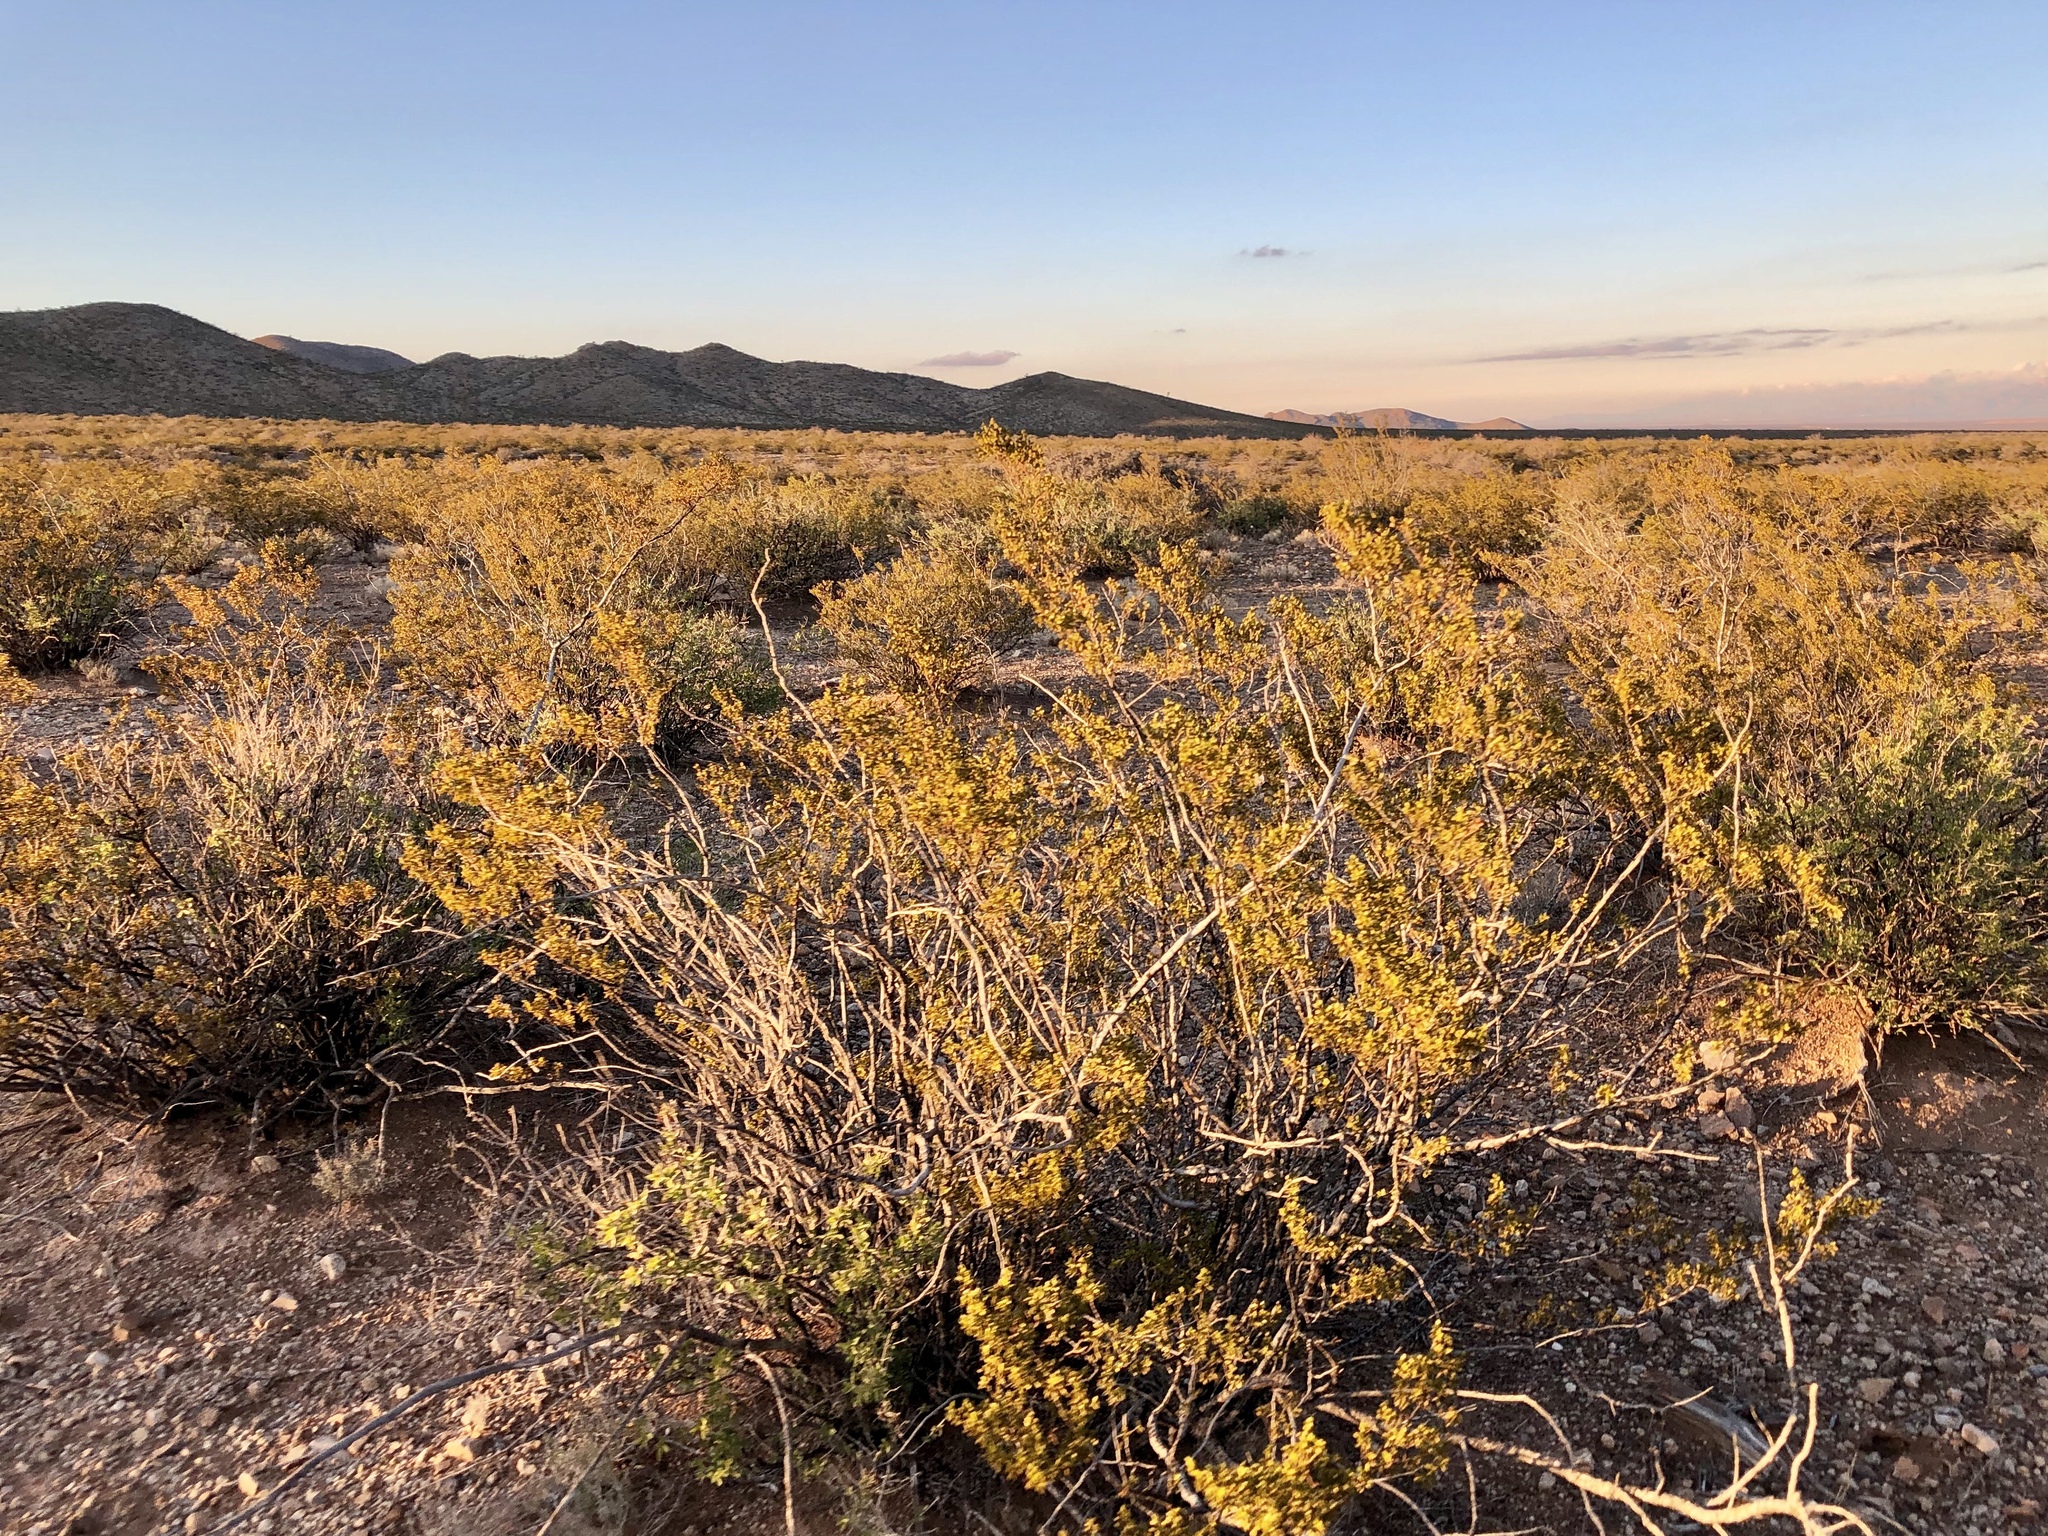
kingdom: Plantae
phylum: Tracheophyta
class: Magnoliopsida
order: Zygophyllales
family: Zygophyllaceae
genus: Larrea
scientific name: Larrea tridentata
